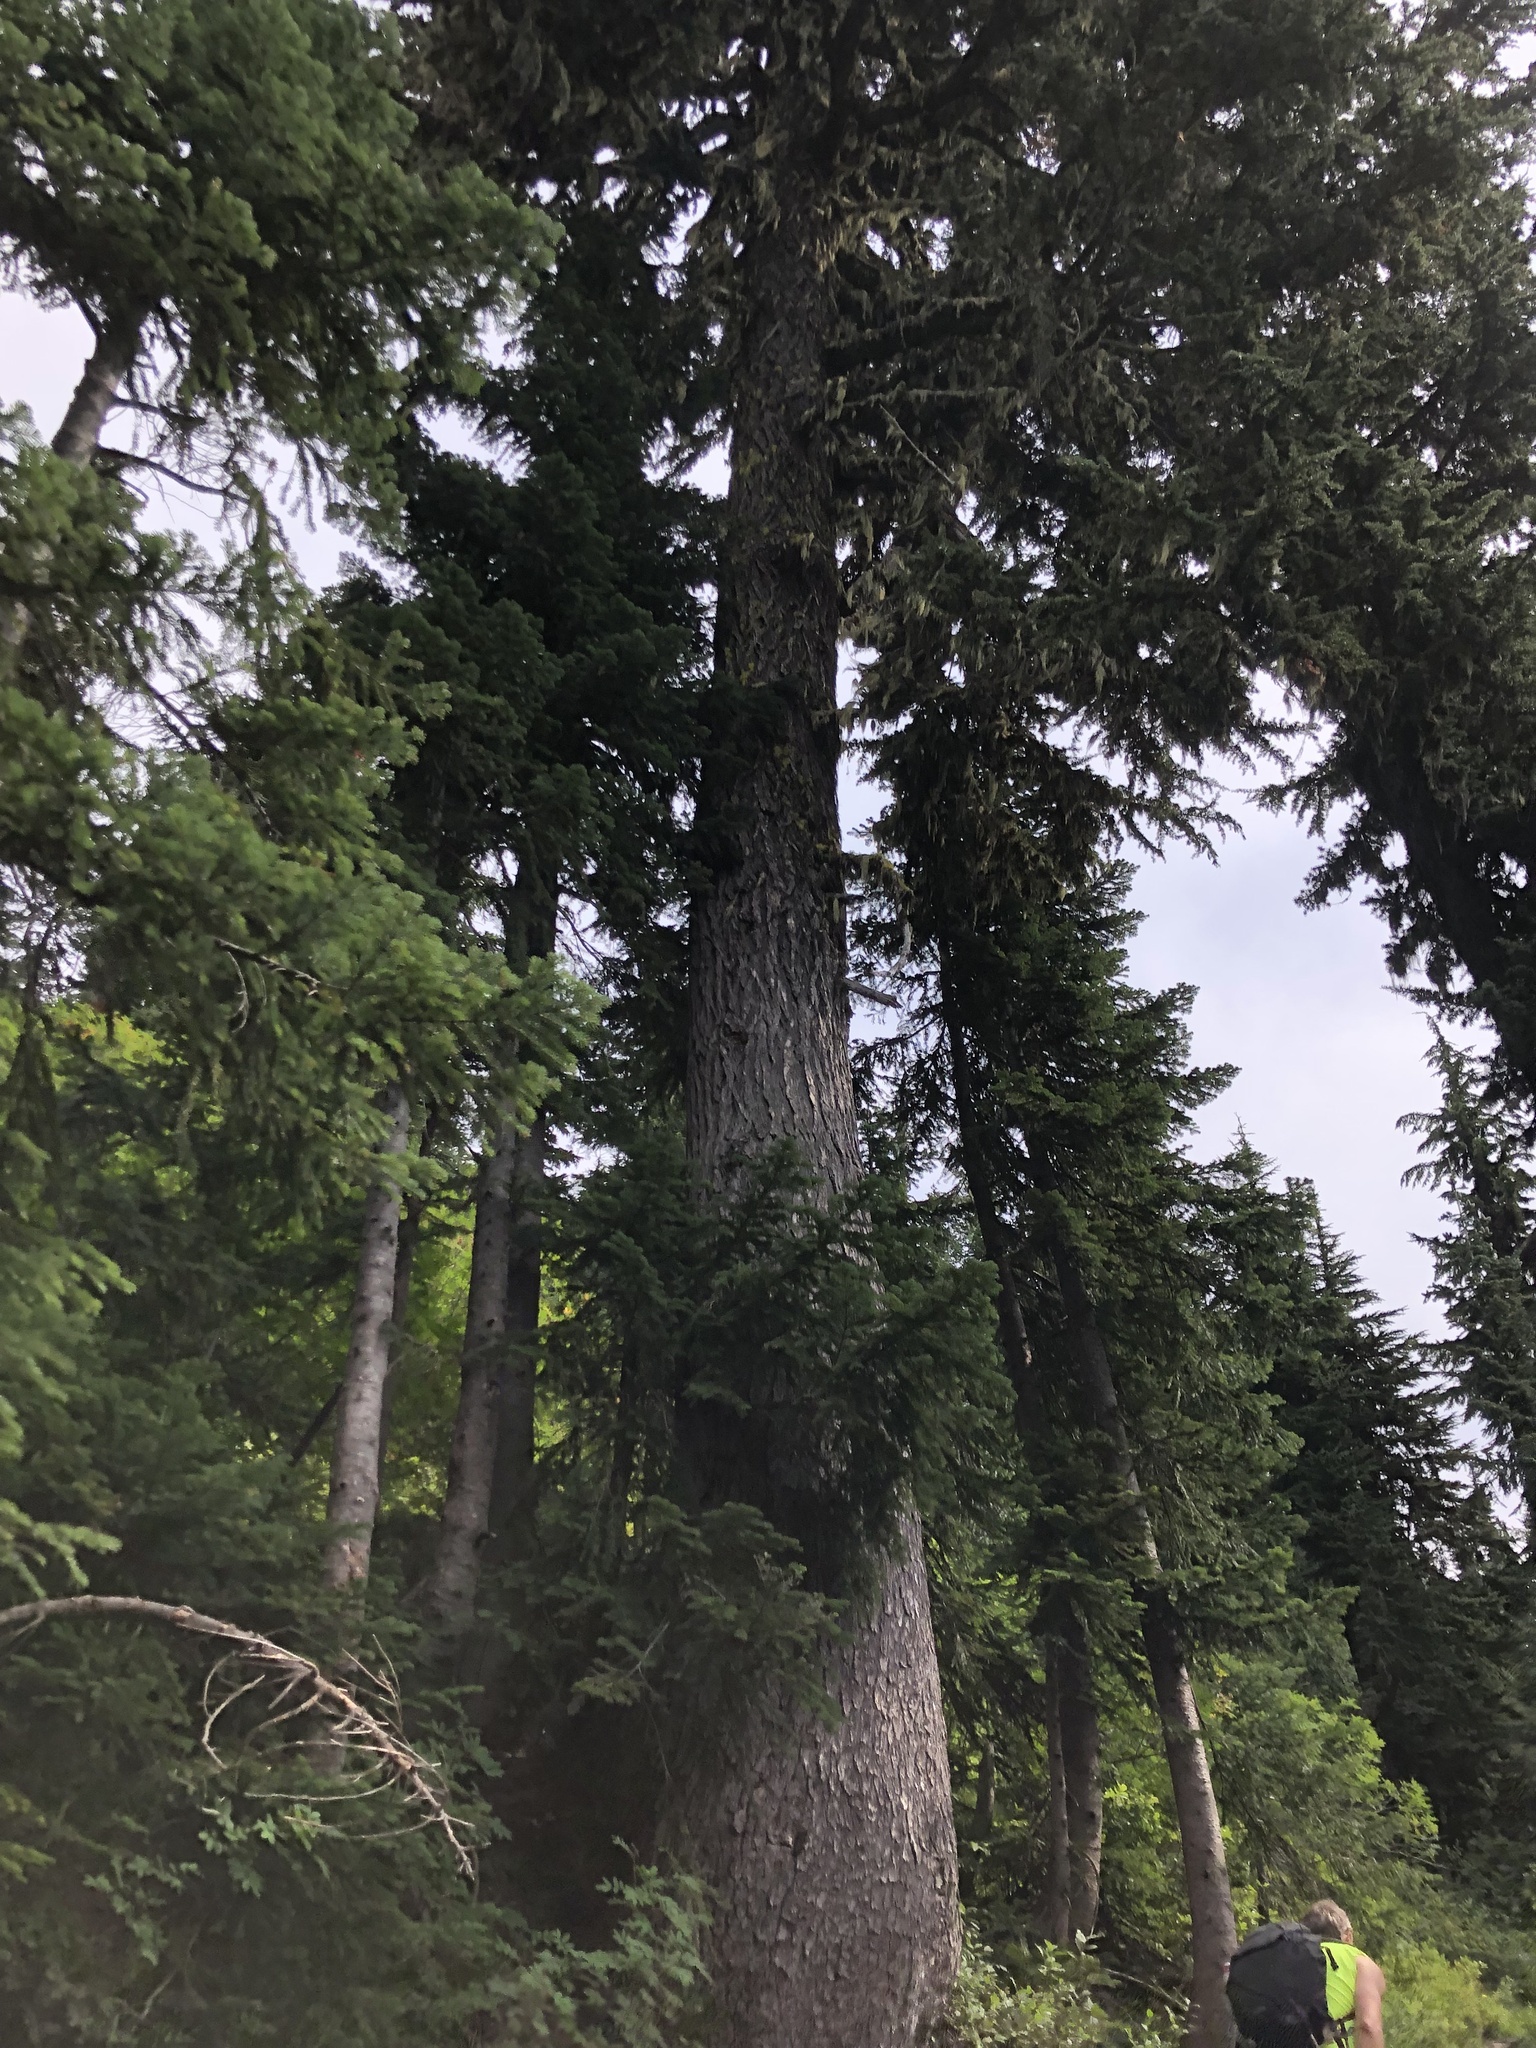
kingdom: Plantae
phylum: Tracheophyta
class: Pinopsida
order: Pinales
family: Pinaceae
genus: Tsuga
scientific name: Tsuga mertensiana
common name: Mountain hemlock
